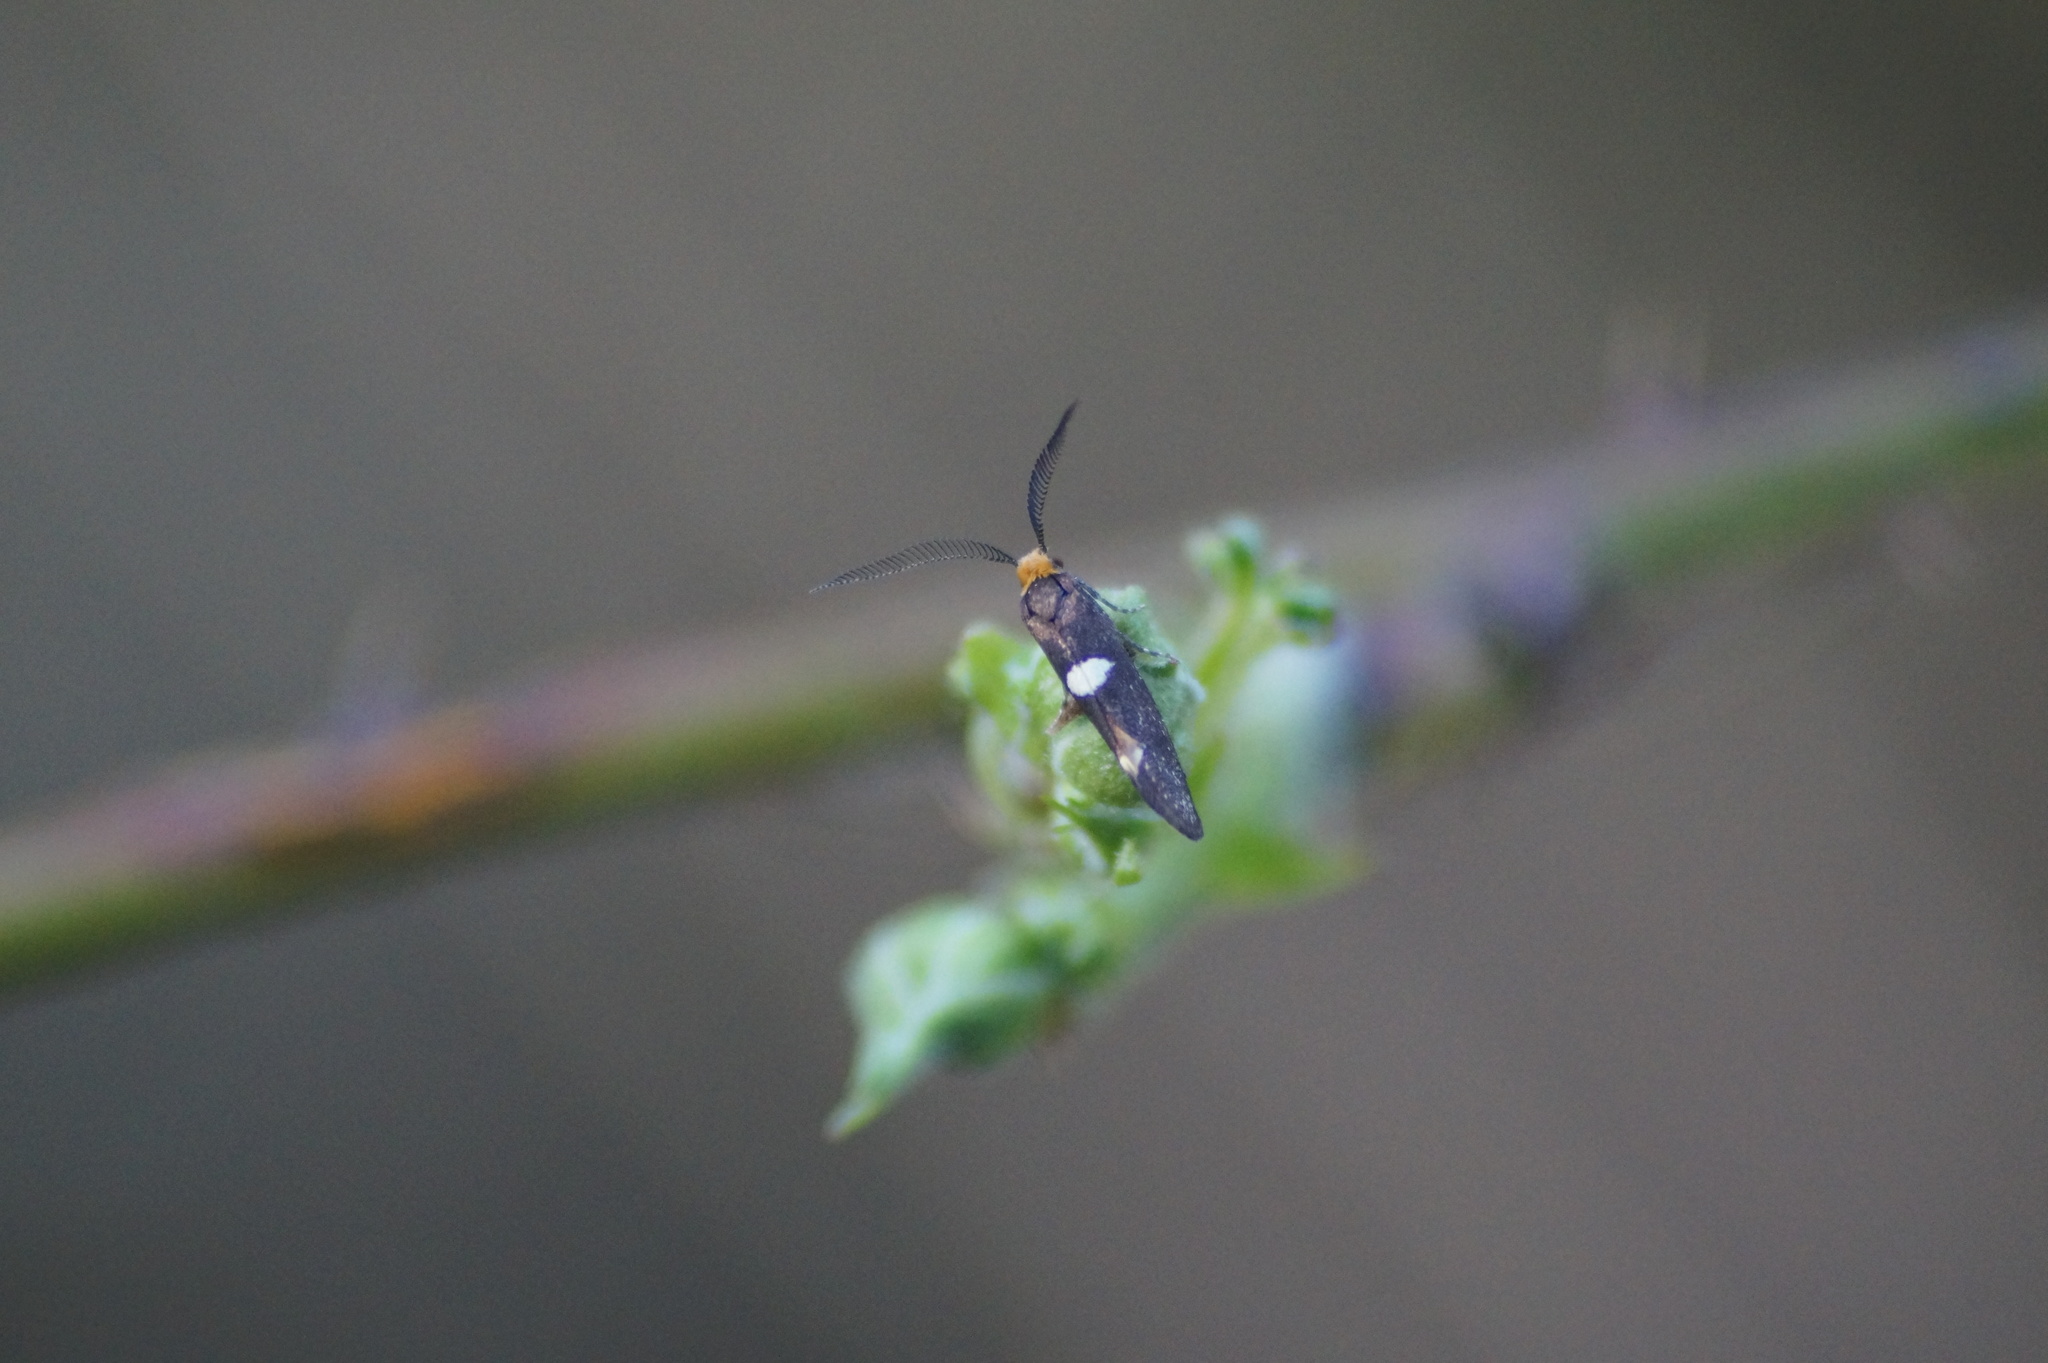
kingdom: Animalia
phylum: Arthropoda
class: Insecta
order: Lepidoptera
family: Incurvariidae
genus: Incurvaria
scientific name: Incurvaria masculella
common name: Feathered leaf-cutter
